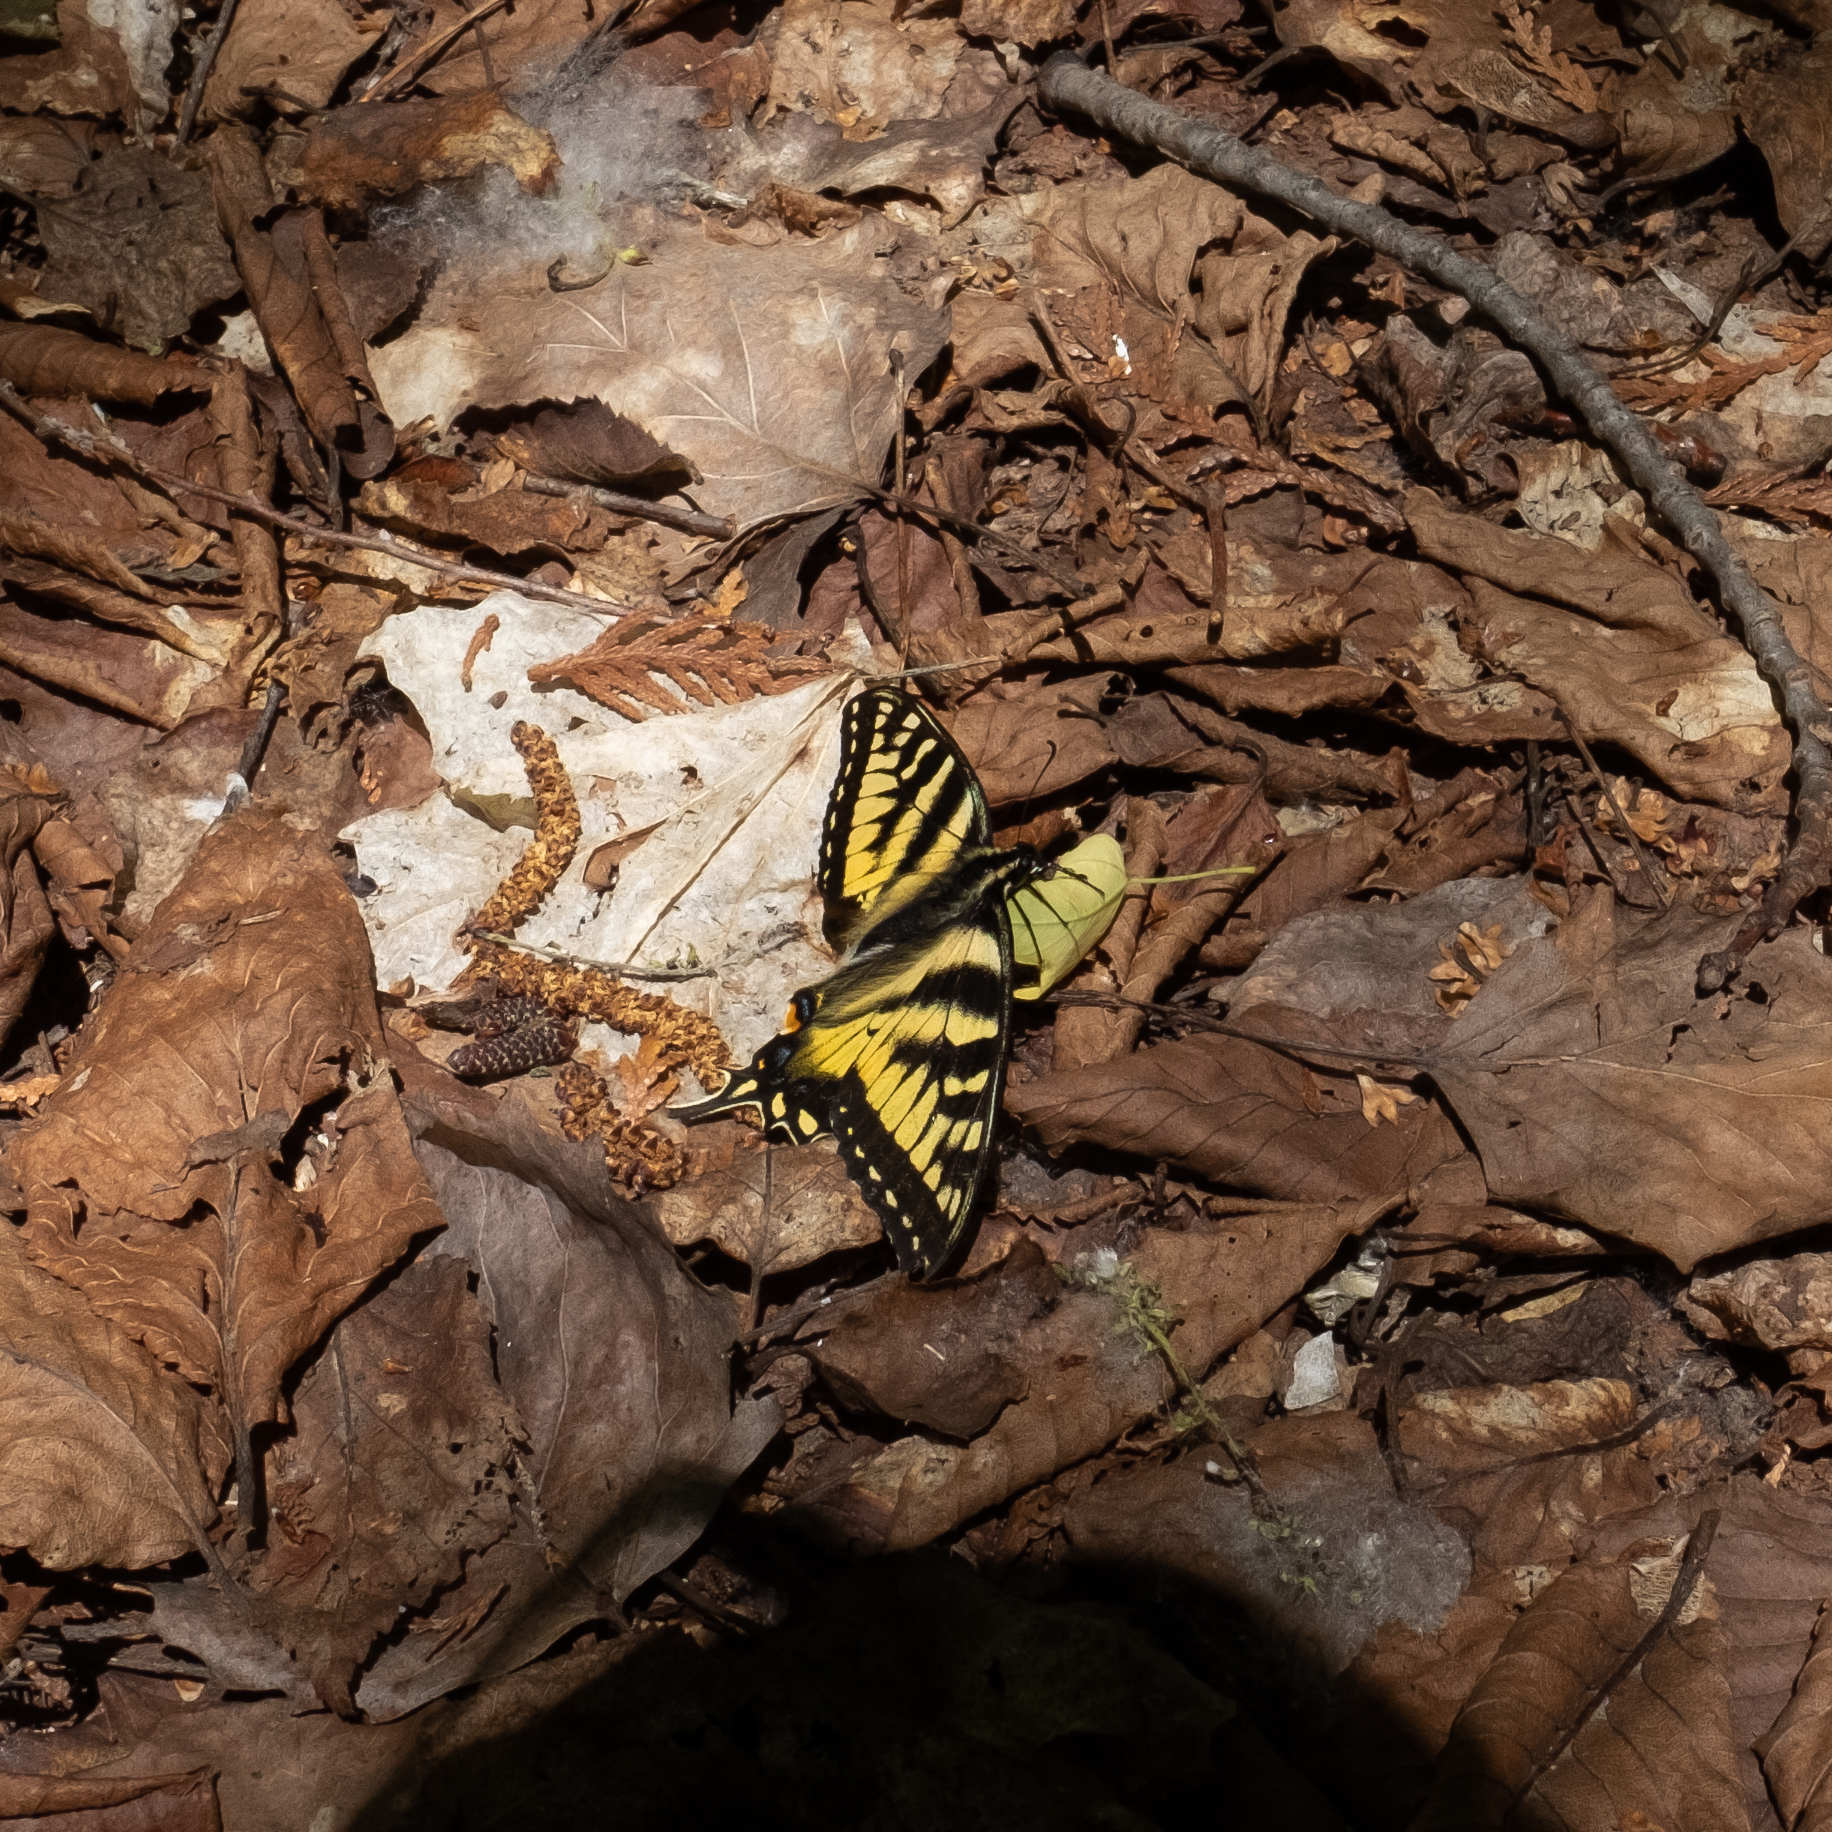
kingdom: Animalia
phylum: Arthropoda
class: Insecta
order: Lepidoptera
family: Papilionidae
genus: Papilio
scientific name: Papilio canadensis
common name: Canadian tiger swallowtail
